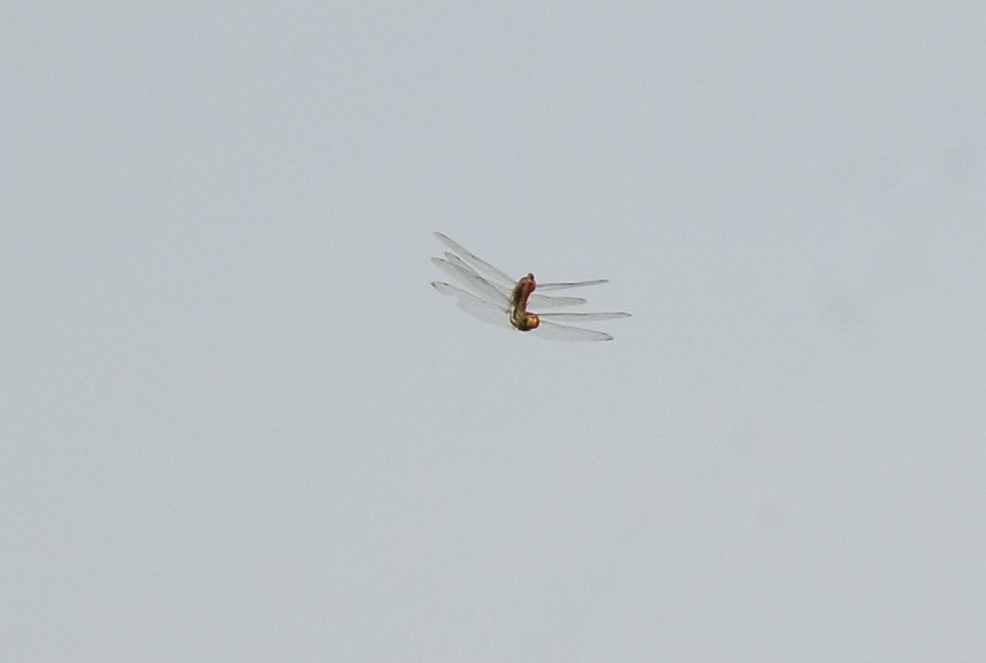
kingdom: Animalia
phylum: Arthropoda
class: Insecta
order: Odonata
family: Libellulidae
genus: Pantala
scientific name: Pantala flavescens
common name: Wandering glider
